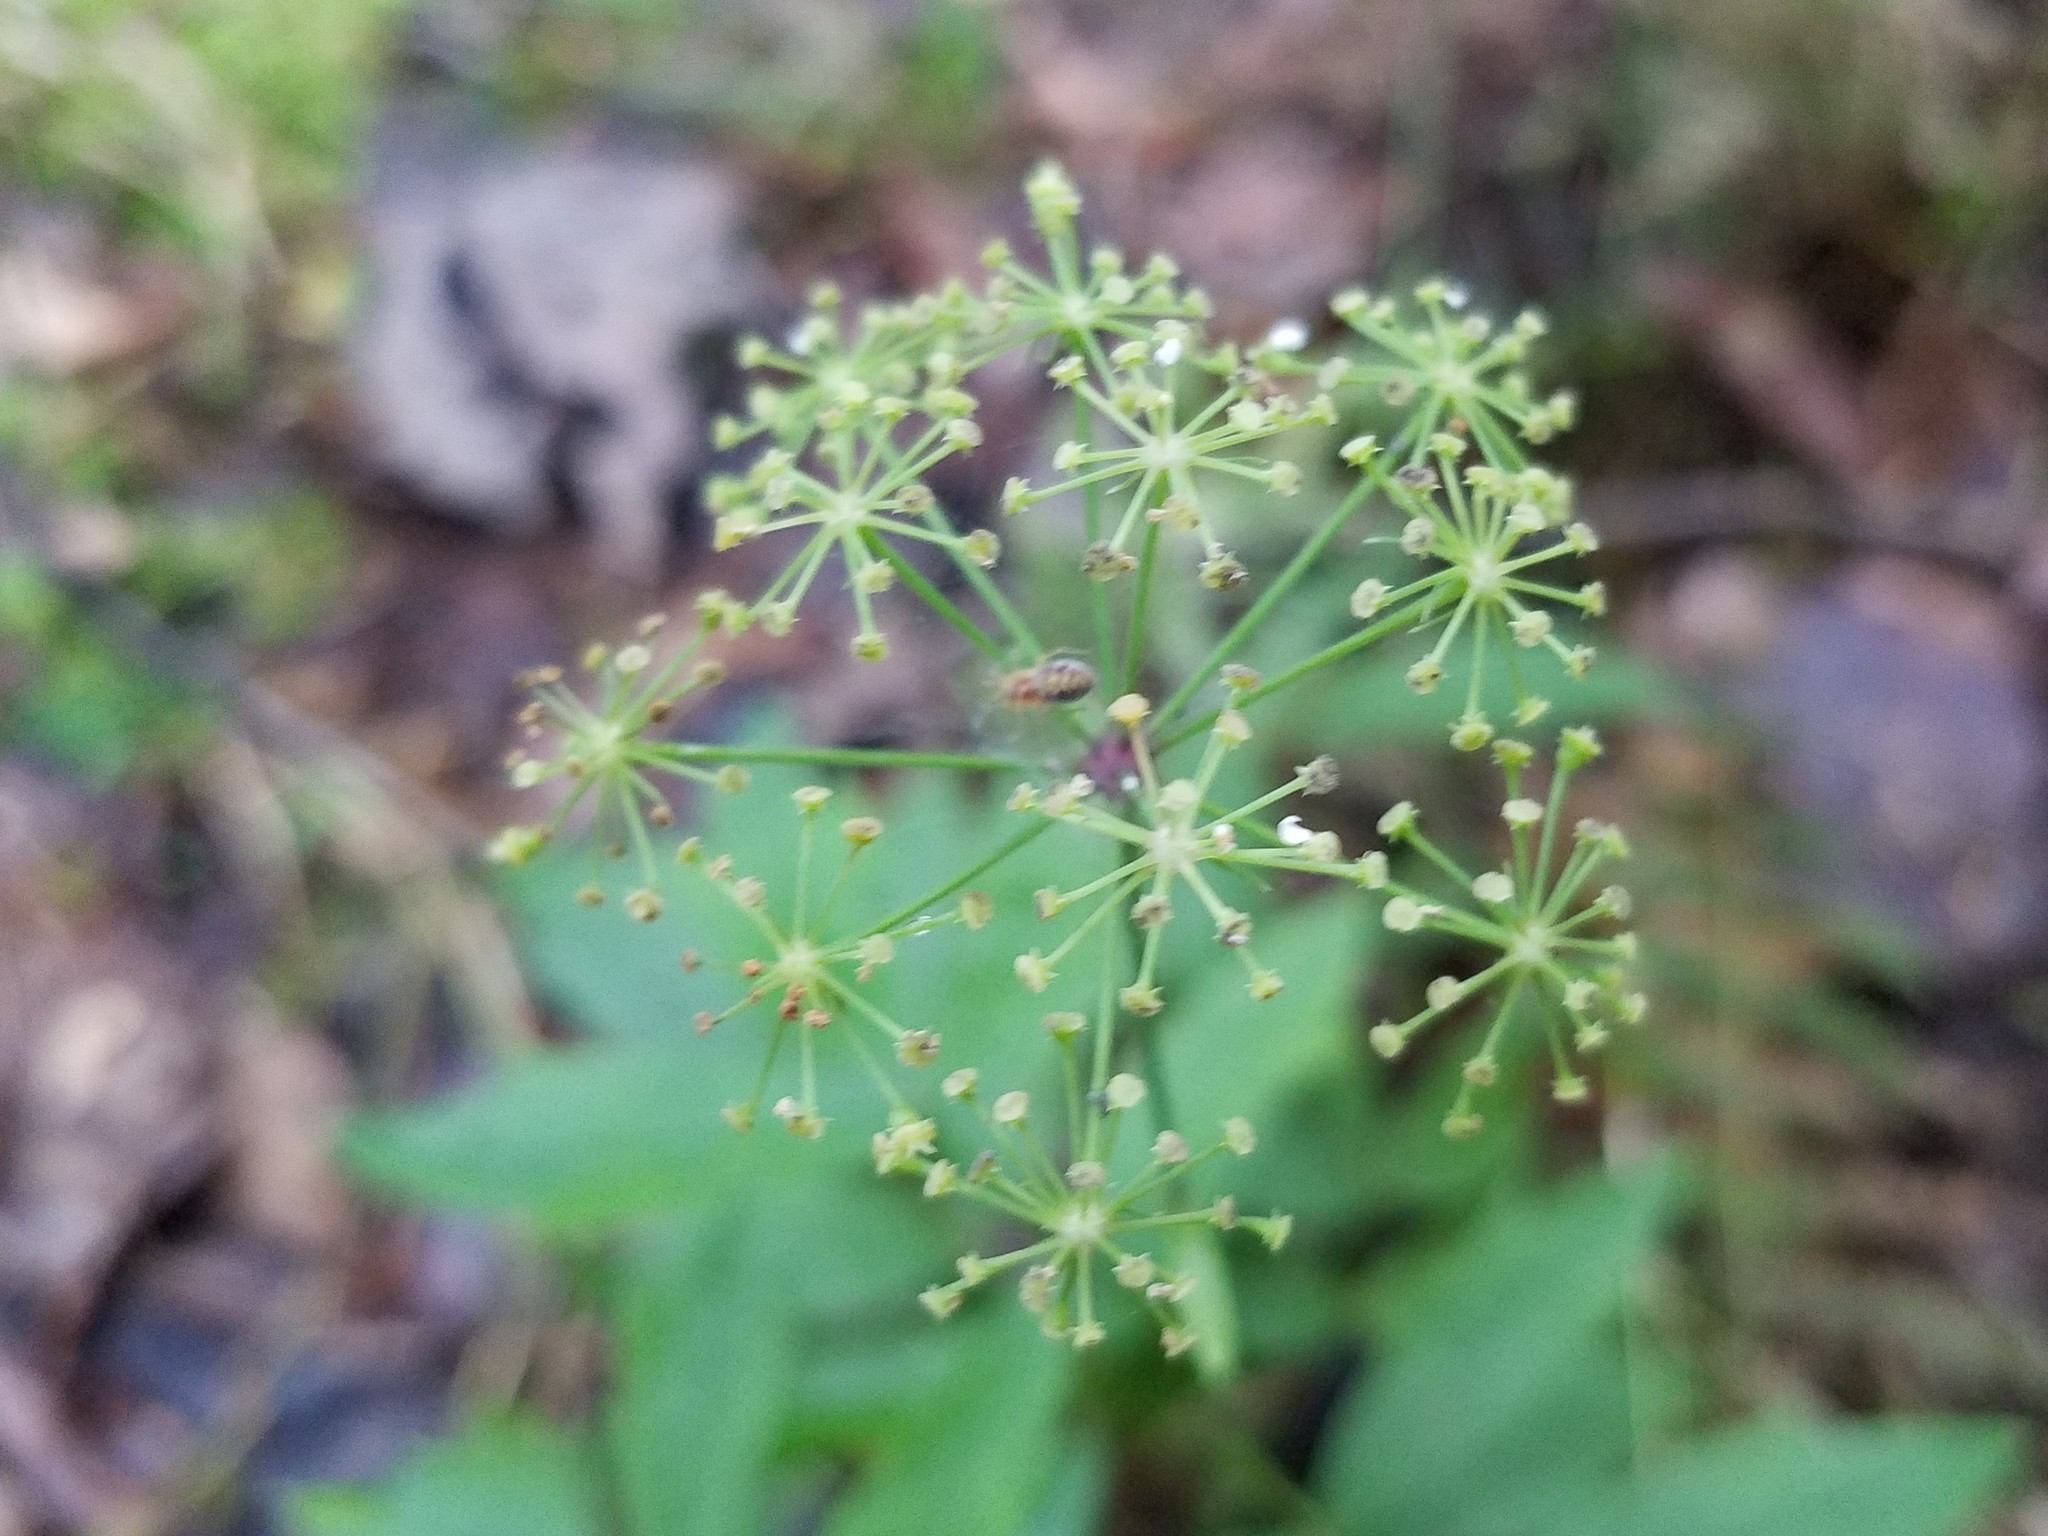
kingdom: Plantae
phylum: Tracheophyta
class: Magnoliopsida
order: Apiales
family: Apiaceae
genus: Oxypolis
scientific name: Oxypolis rigidior
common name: Cowbane
